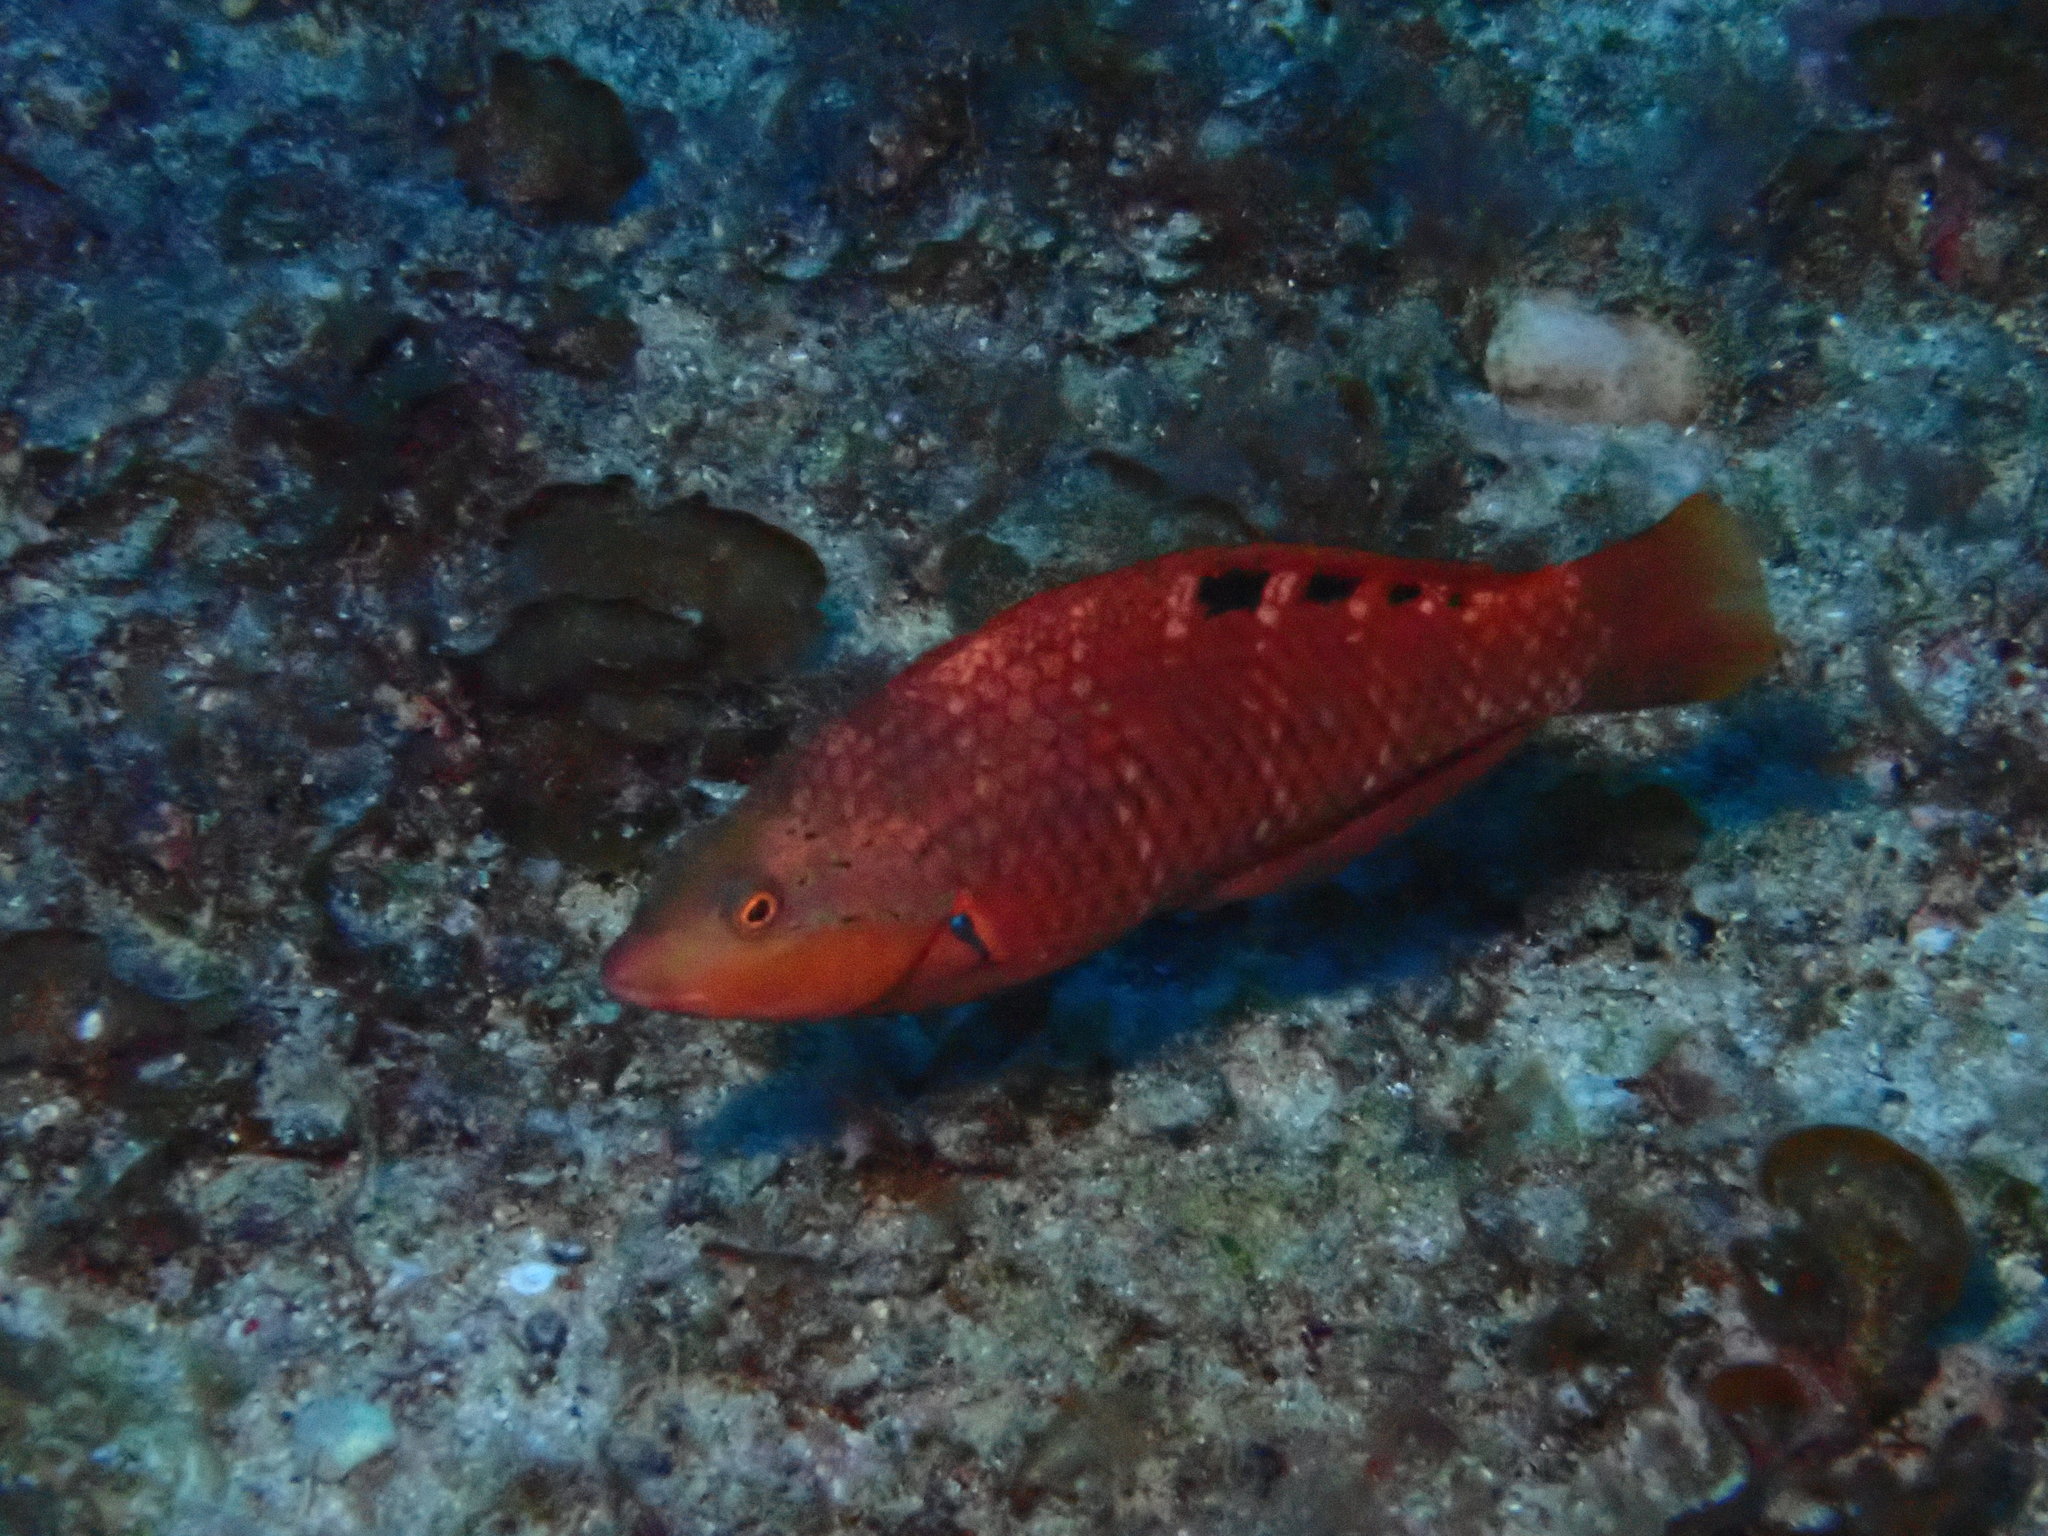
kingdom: Animalia
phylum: Chordata
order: Perciformes
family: Labridae
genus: Pseudolabrus
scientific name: Pseudolabrus luculentus
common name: Luculentus wrasse
